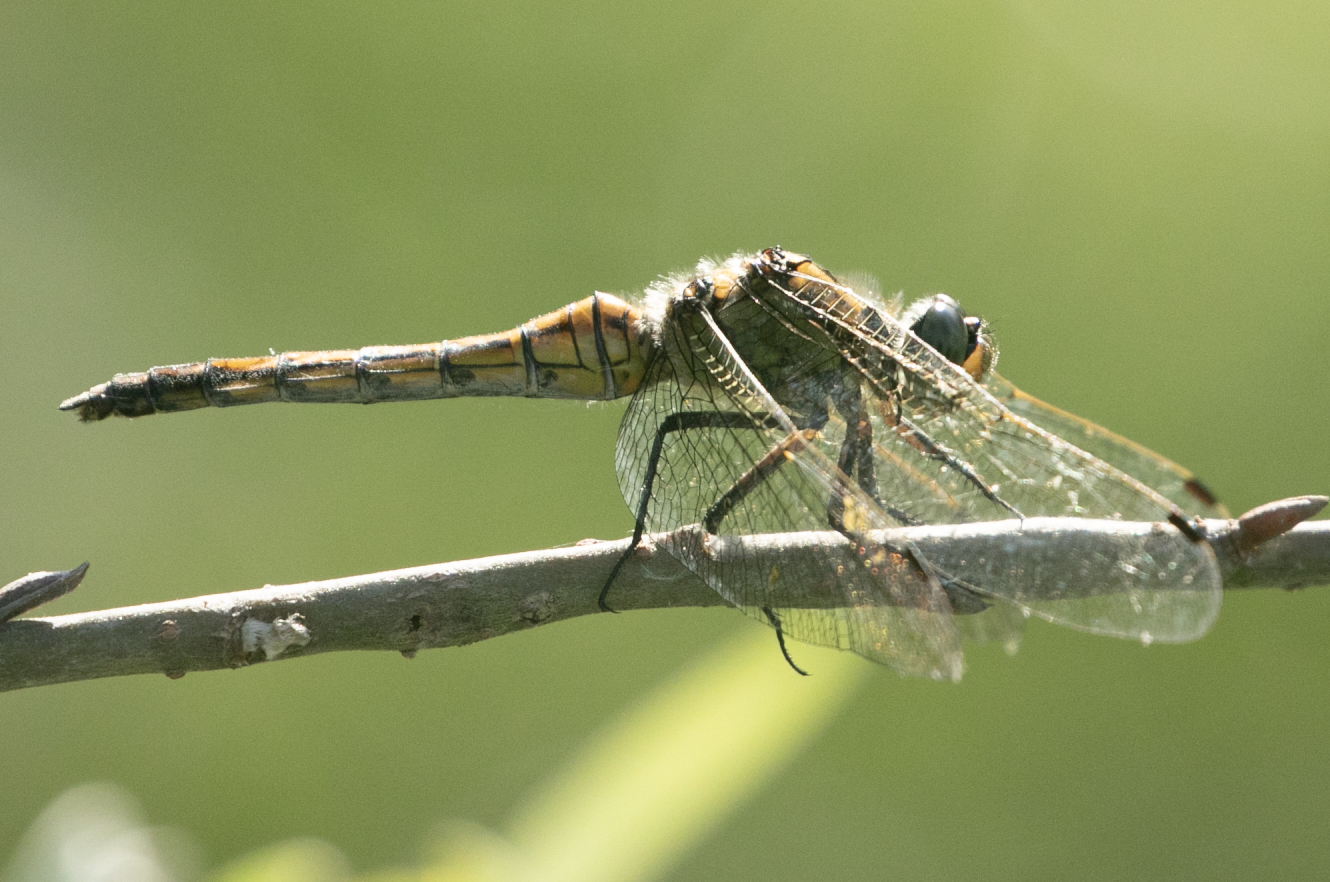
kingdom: Animalia
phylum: Arthropoda
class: Insecta
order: Odonata
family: Libellulidae
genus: Orthetrum
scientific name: Orthetrum cancellatum
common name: Black-tailed skimmer
